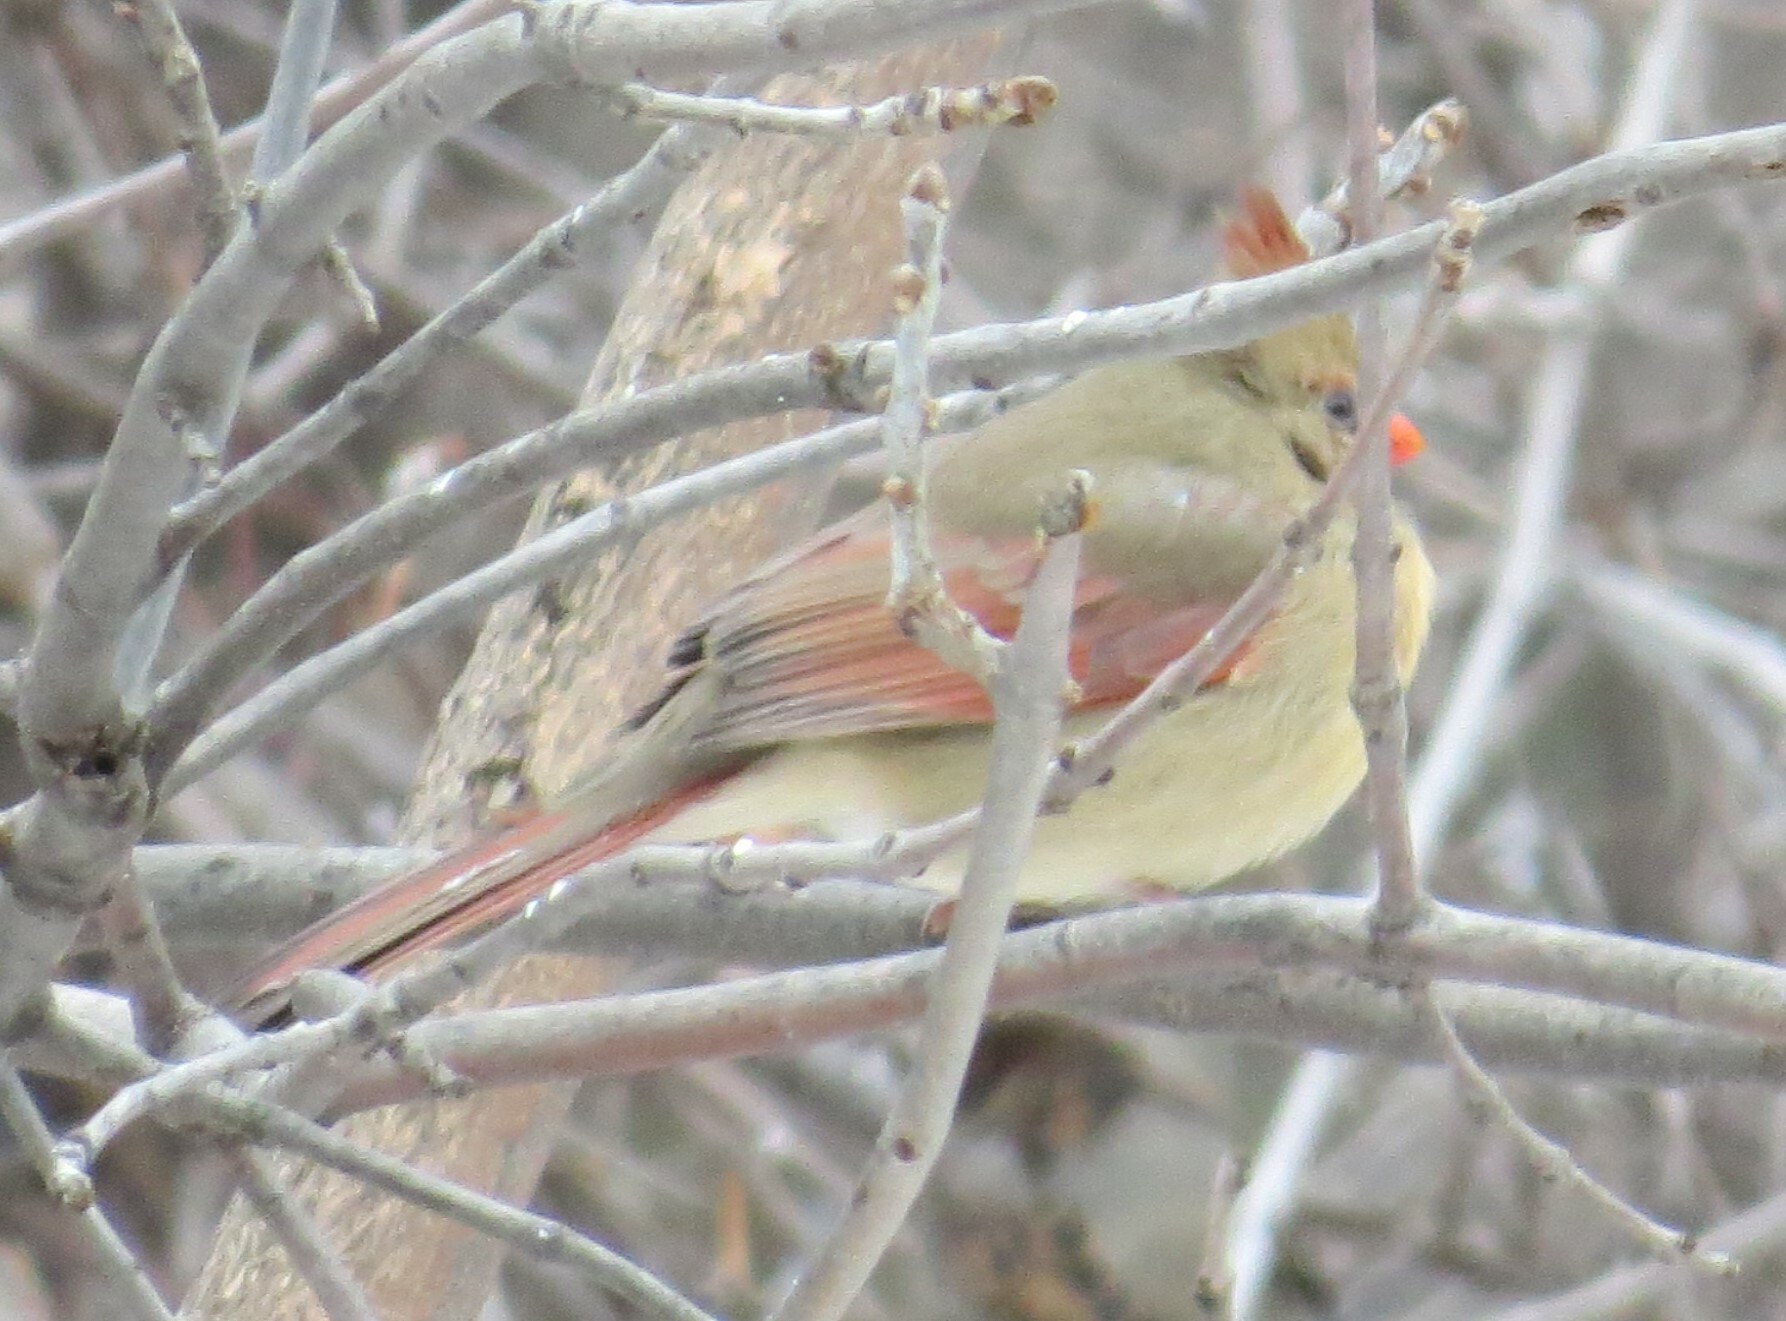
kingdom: Animalia
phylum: Chordata
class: Aves
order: Passeriformes
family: Cardinalidae
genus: Cardinalis
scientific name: Cardinalis cardinalis
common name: Northern cardinal
